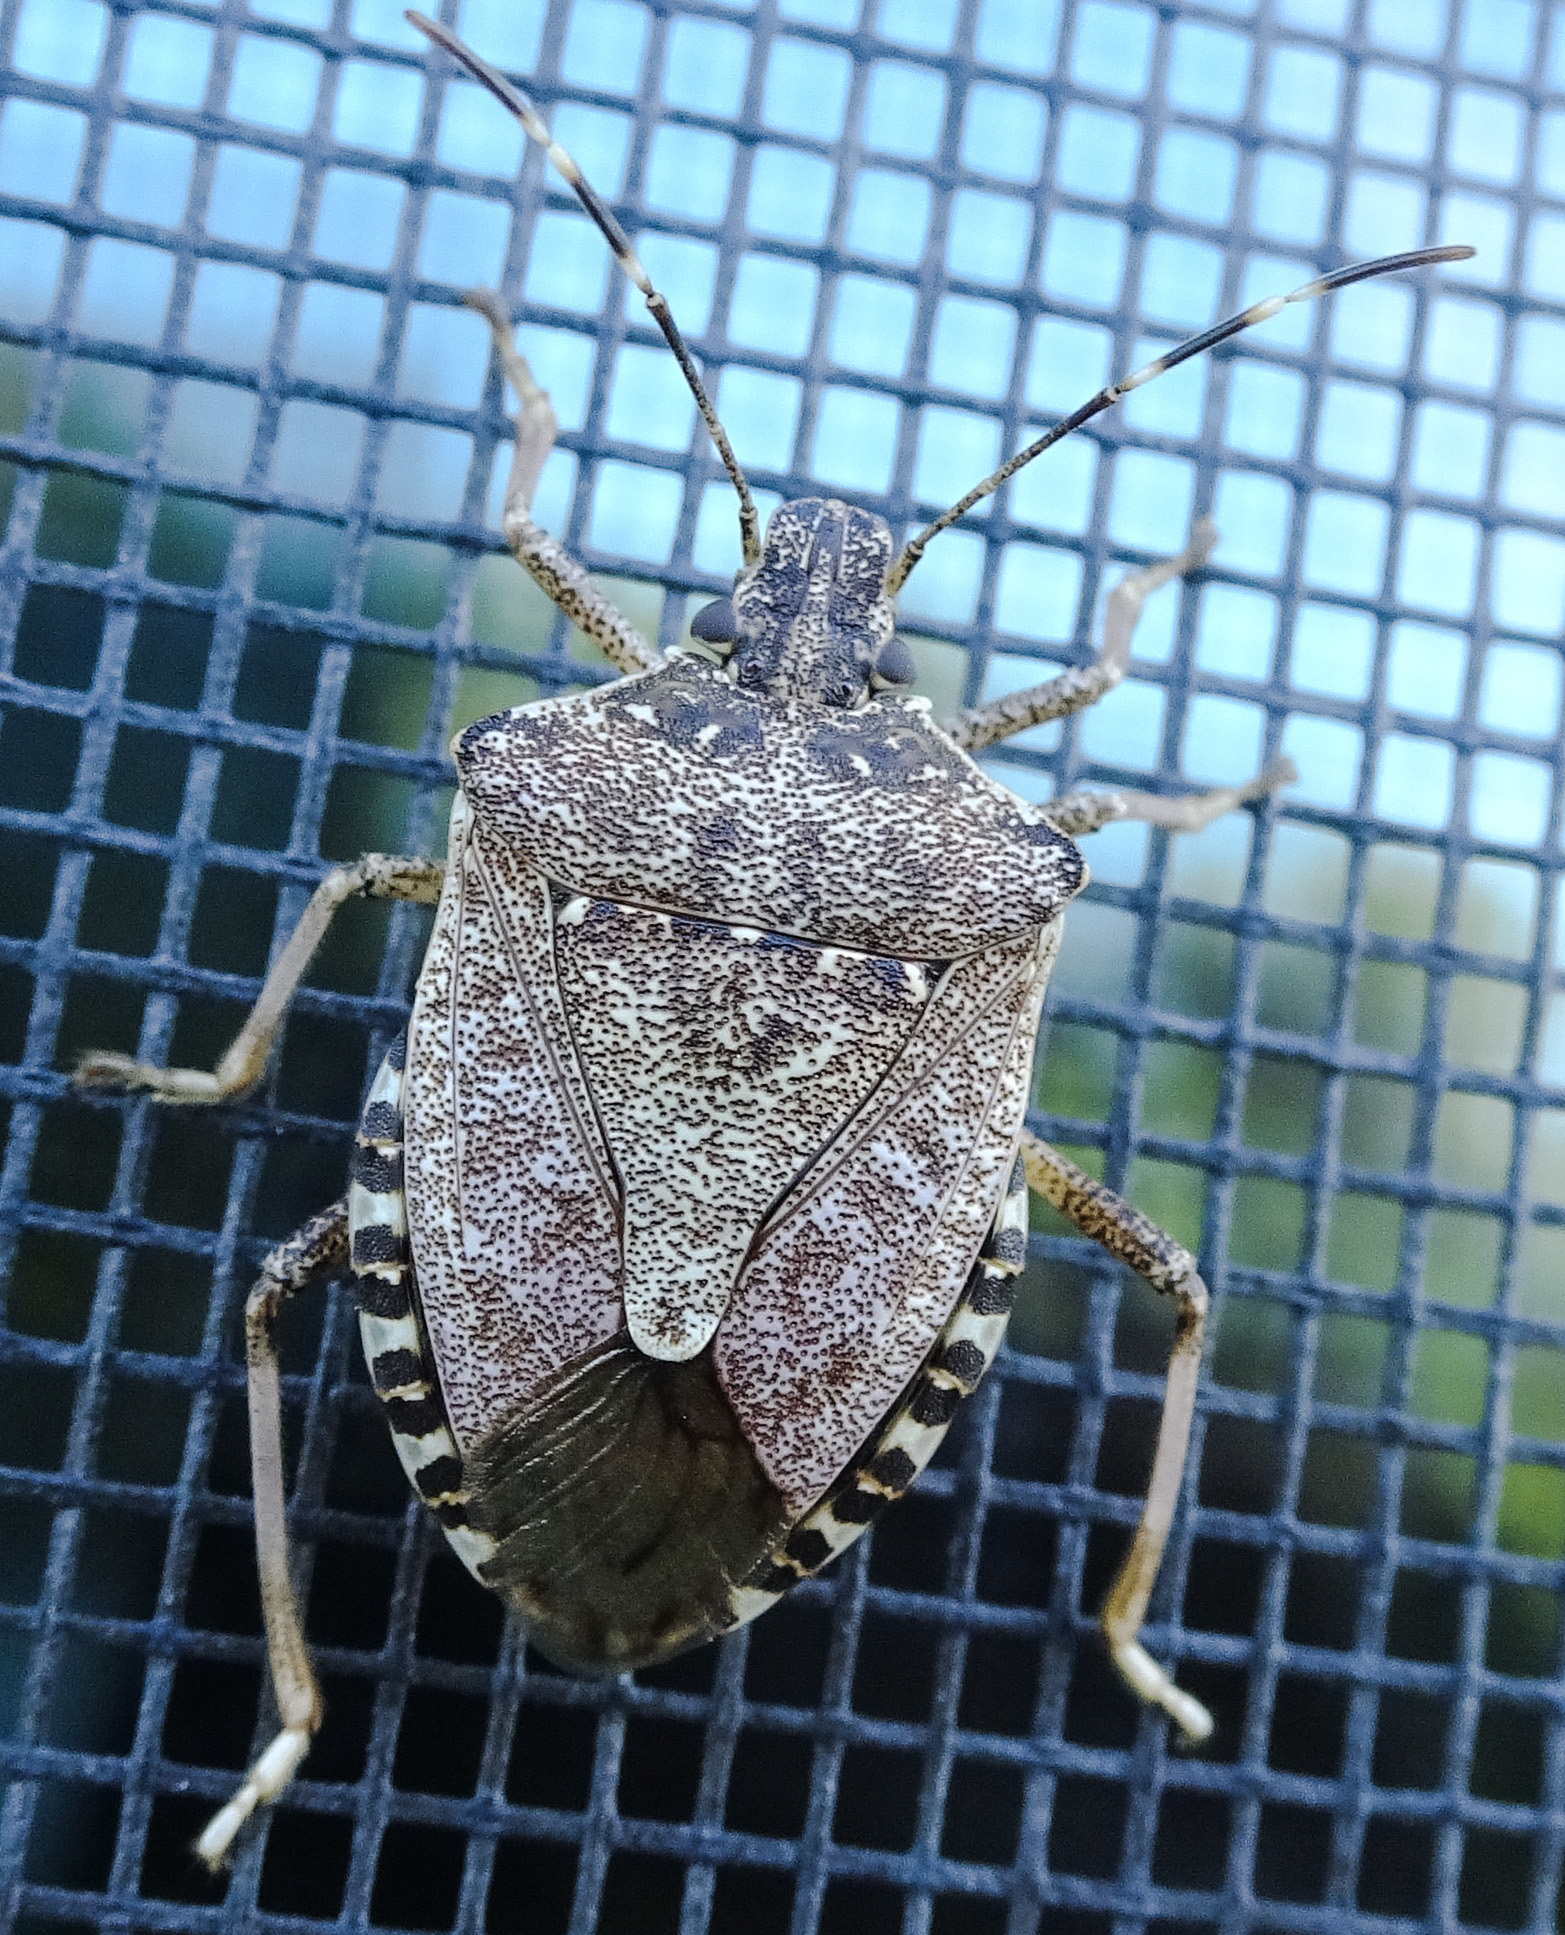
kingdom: Animalia
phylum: Arthropoda
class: Insecta
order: Hemiptera
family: Pentatomidae
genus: Halyomorpha
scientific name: Halyomorpha halys
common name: Brown marmorated stink bug
